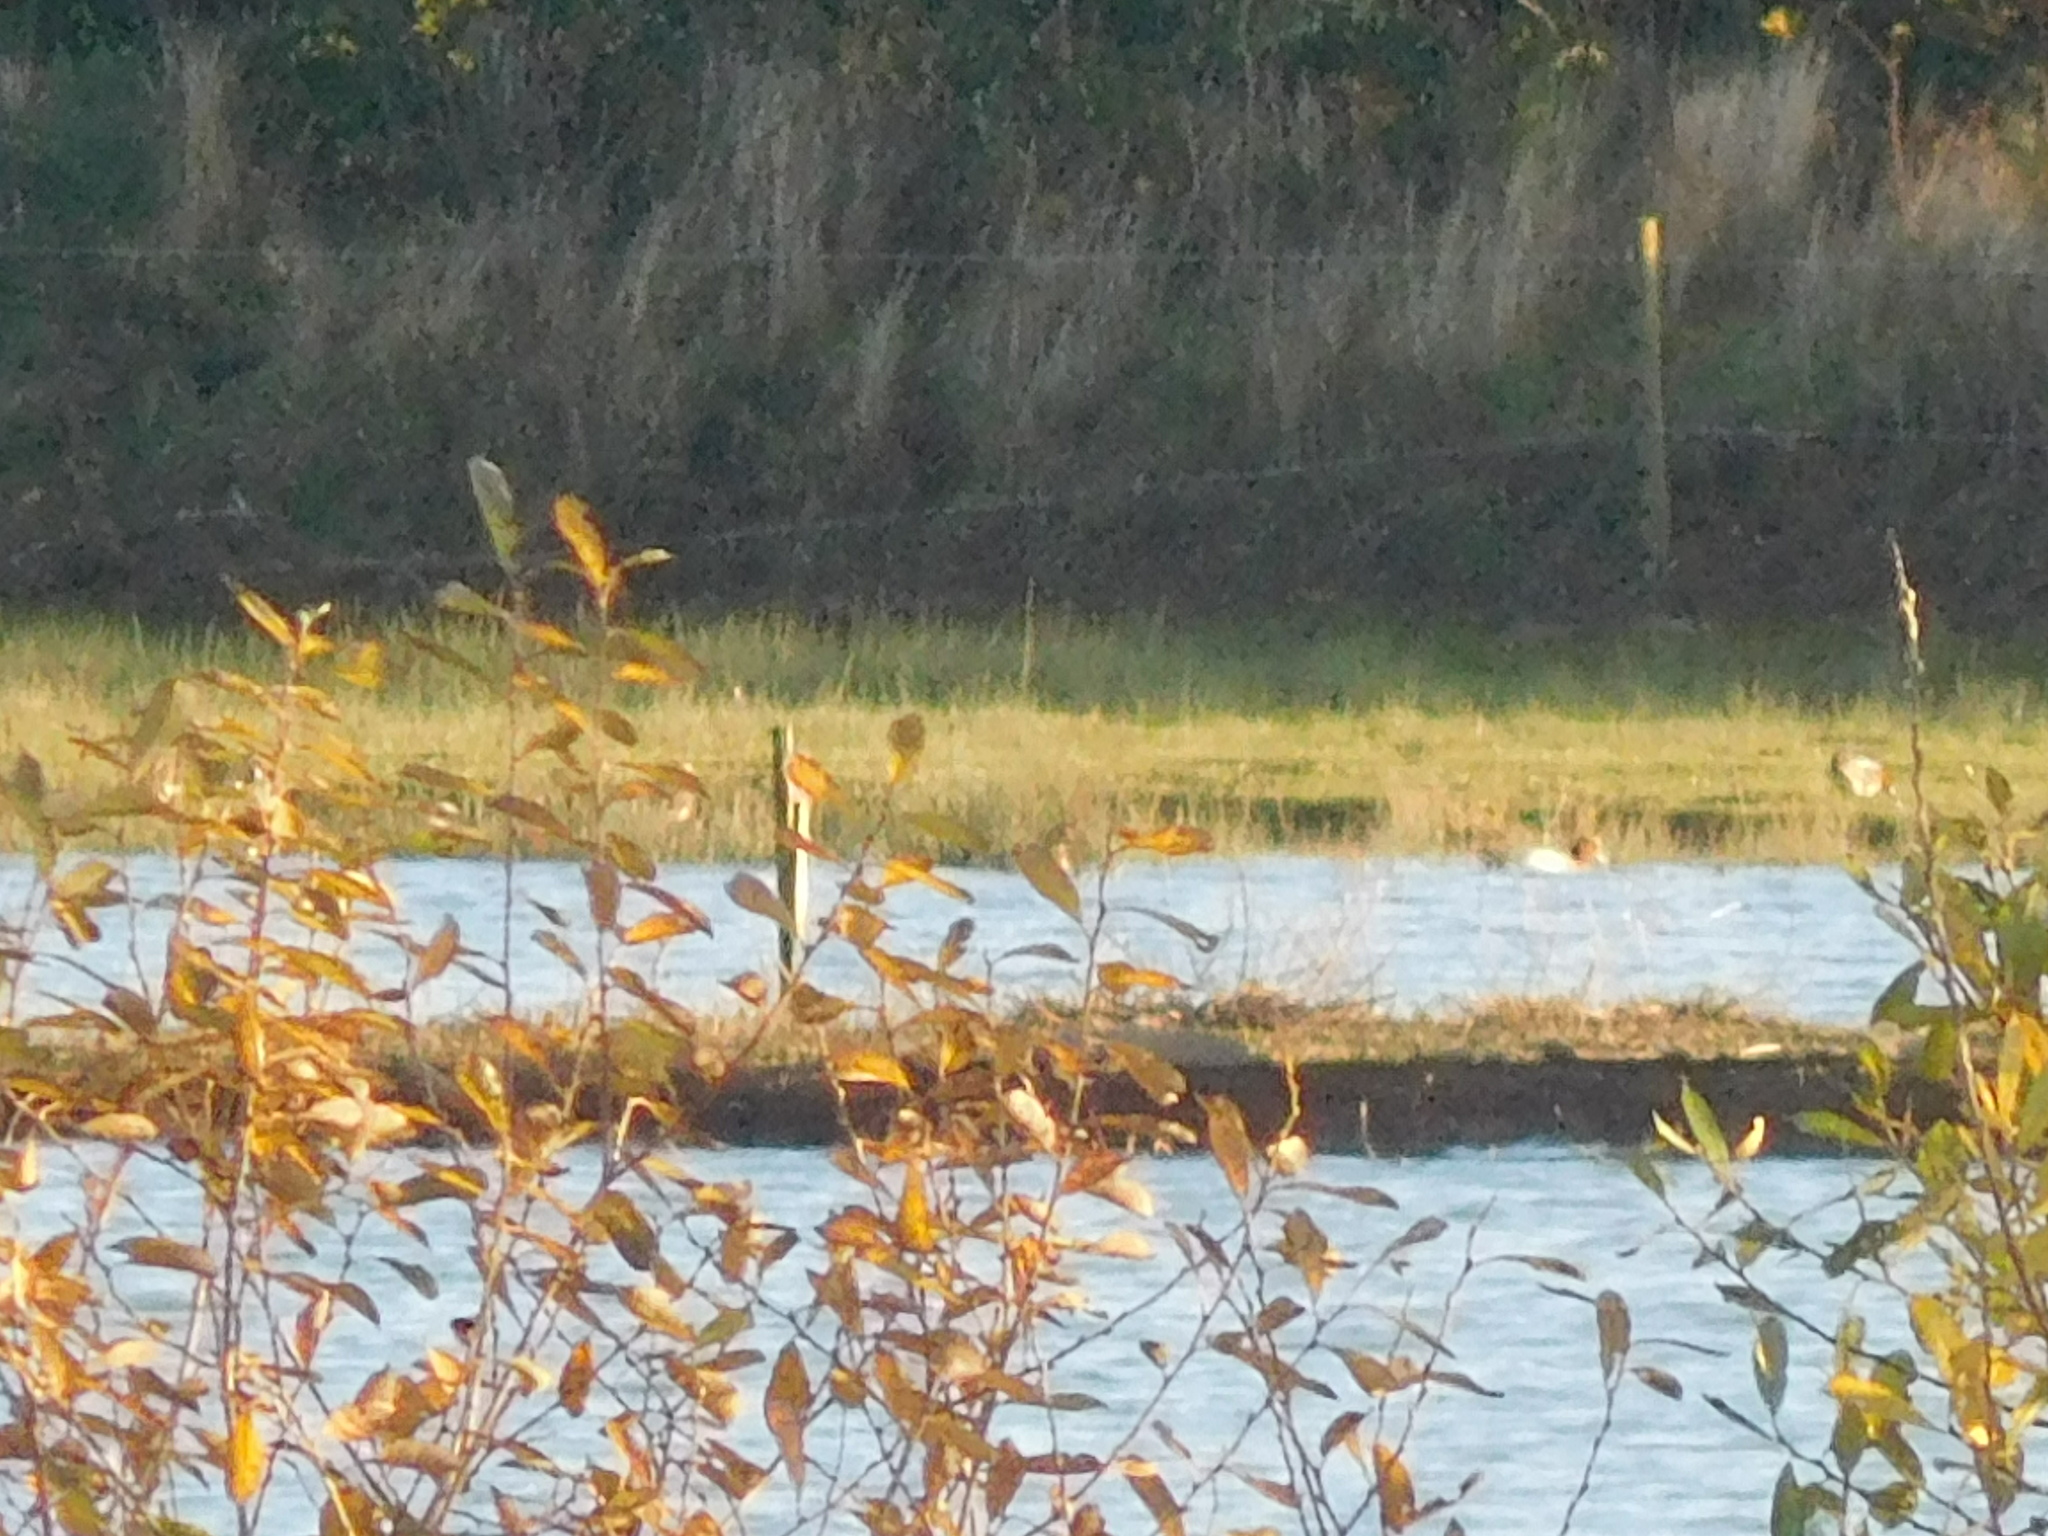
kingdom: Animalia
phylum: Chordata
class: Aves
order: Anseriformes
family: Anatidae
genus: Mareca
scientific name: Mareca penelope
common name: Eurasian wigeon
